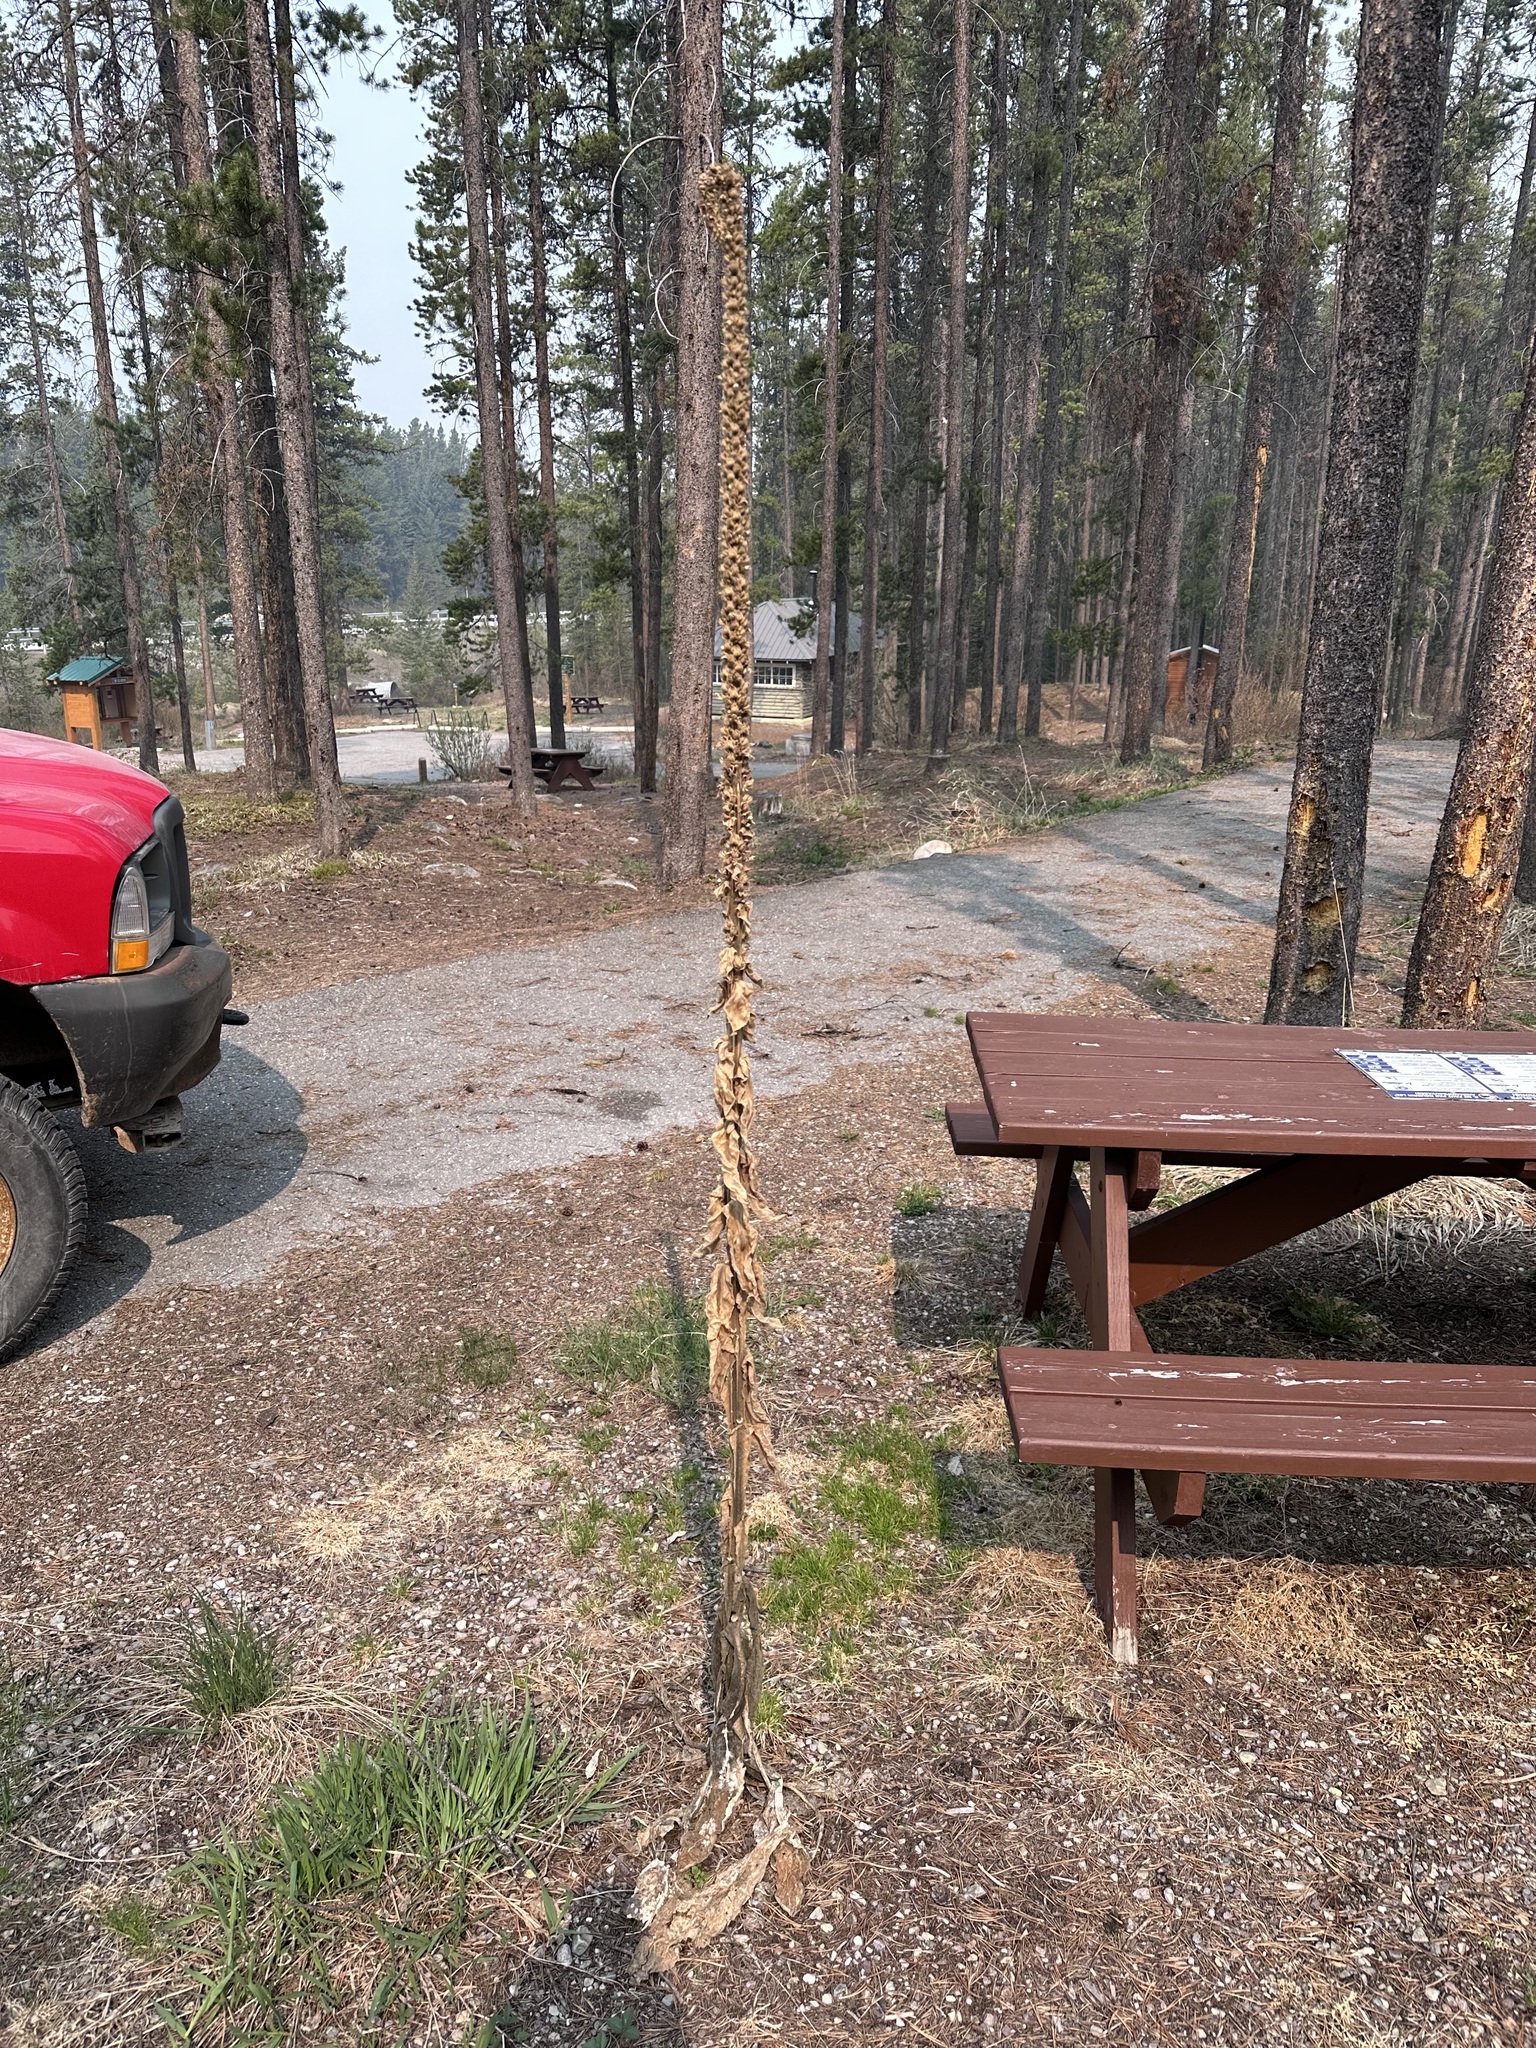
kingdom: Plantae
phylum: Tracheophyta
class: Magnoliopsida
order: Lamiales
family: Scrophulariaceae
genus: Verbascum
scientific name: Verbascum thapsus
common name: Common mullein
